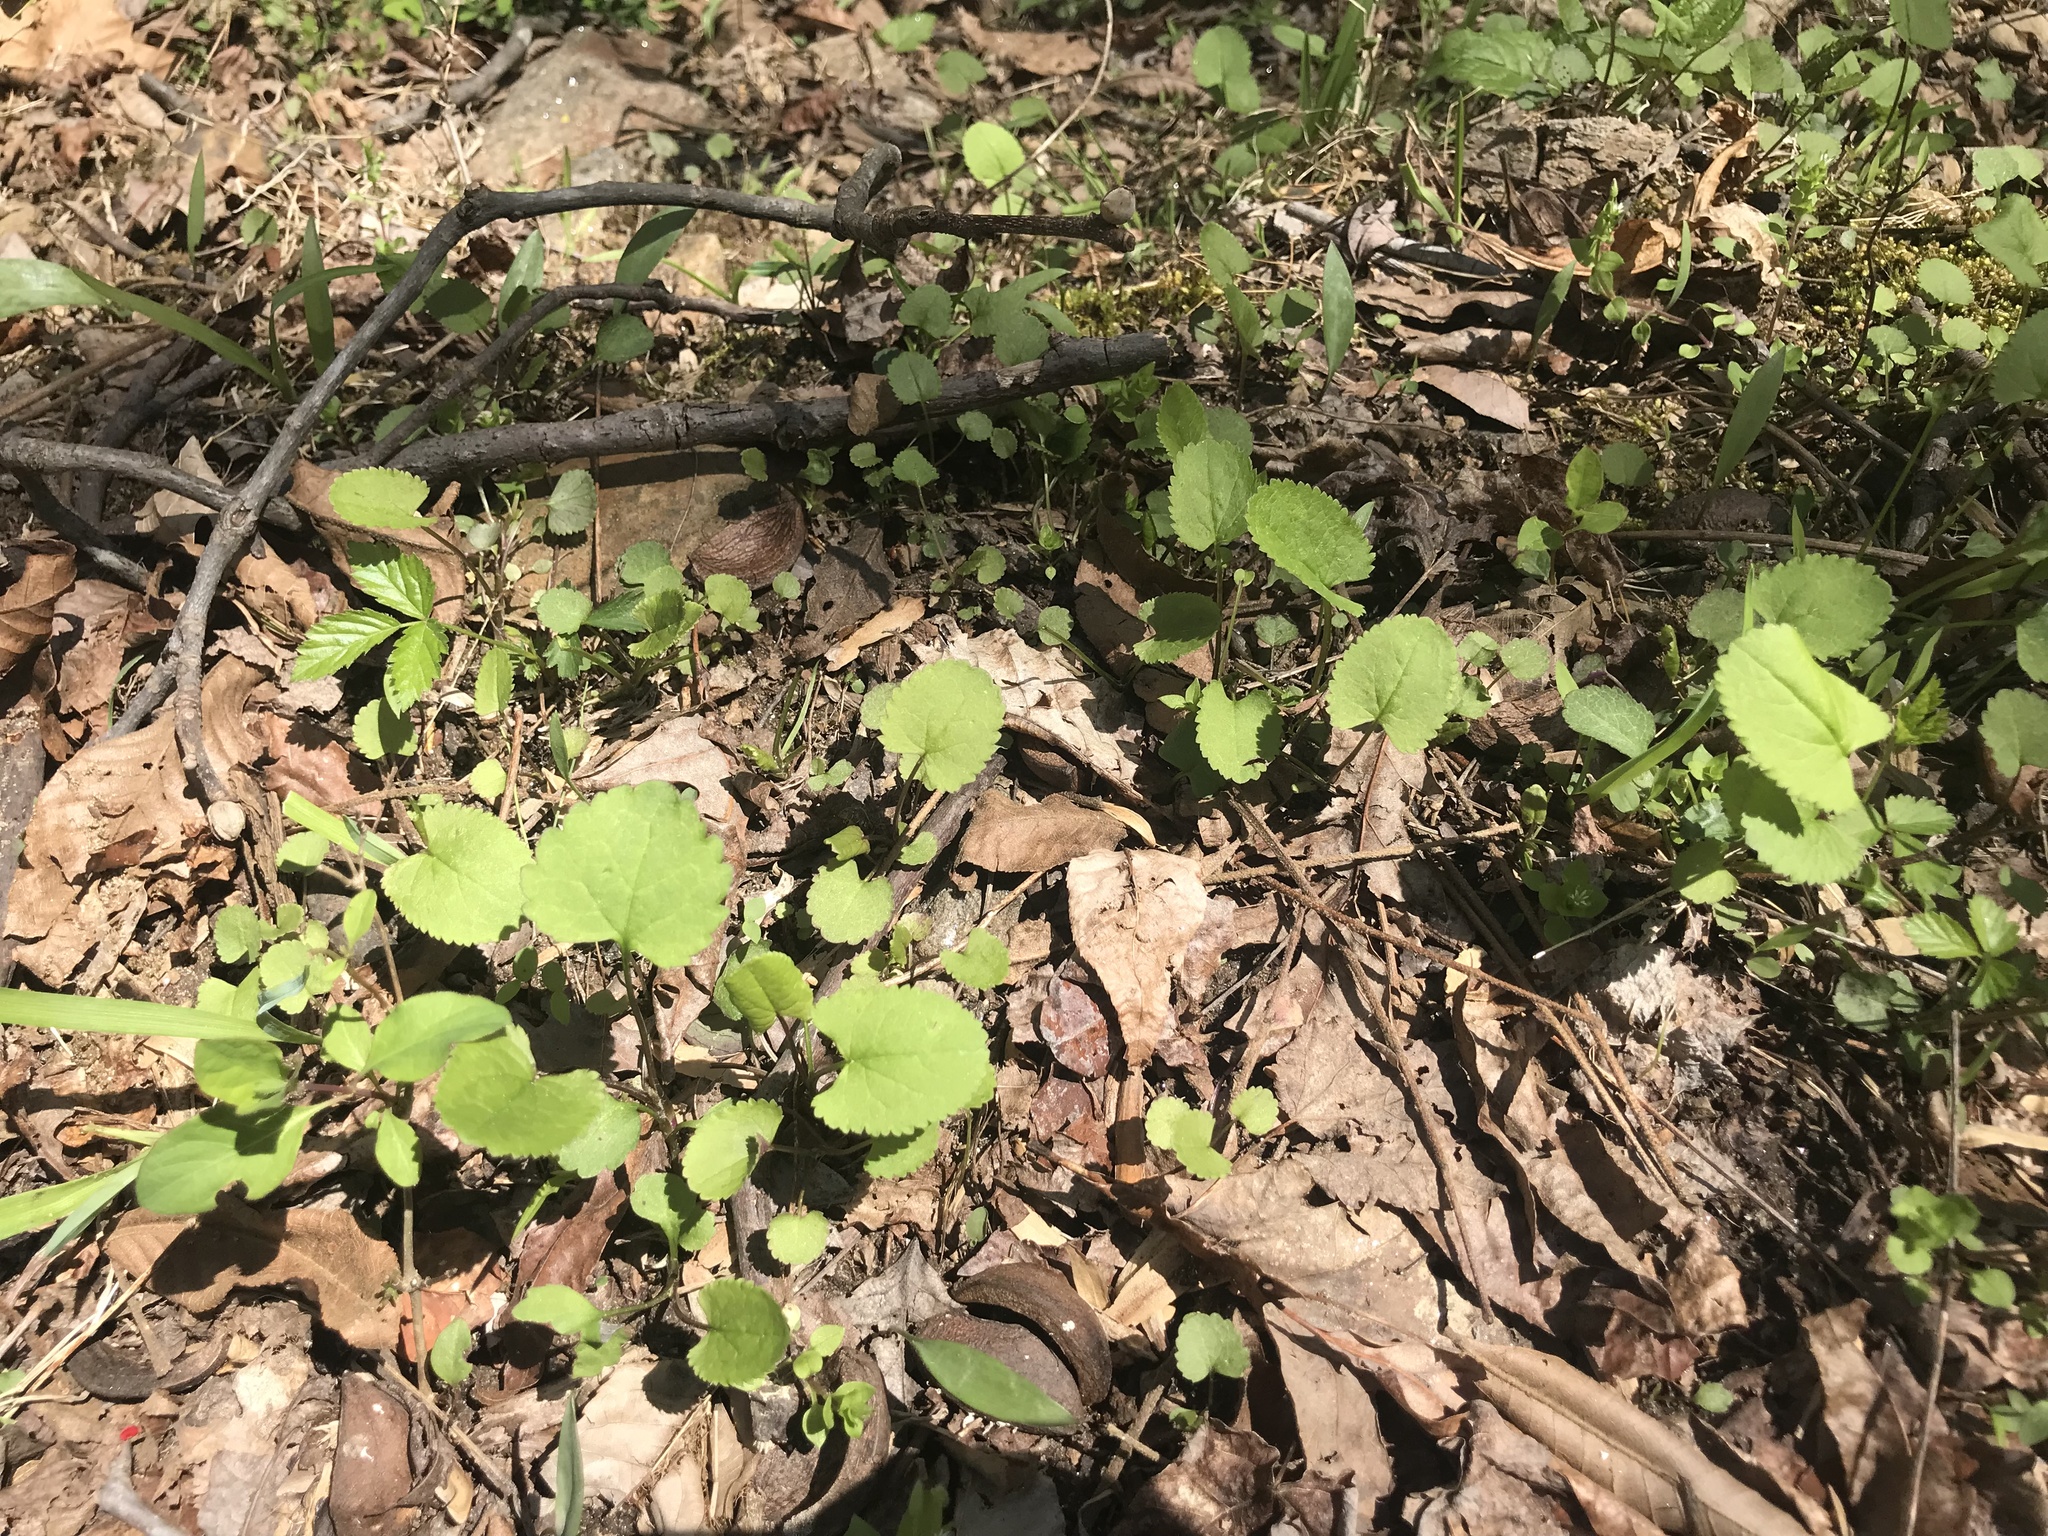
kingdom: Plantae
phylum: Tracheophyta
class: Magnoliopsida
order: Asterales
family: Asteraceae
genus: Packera
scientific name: Packera aurea
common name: Golden groundsel
